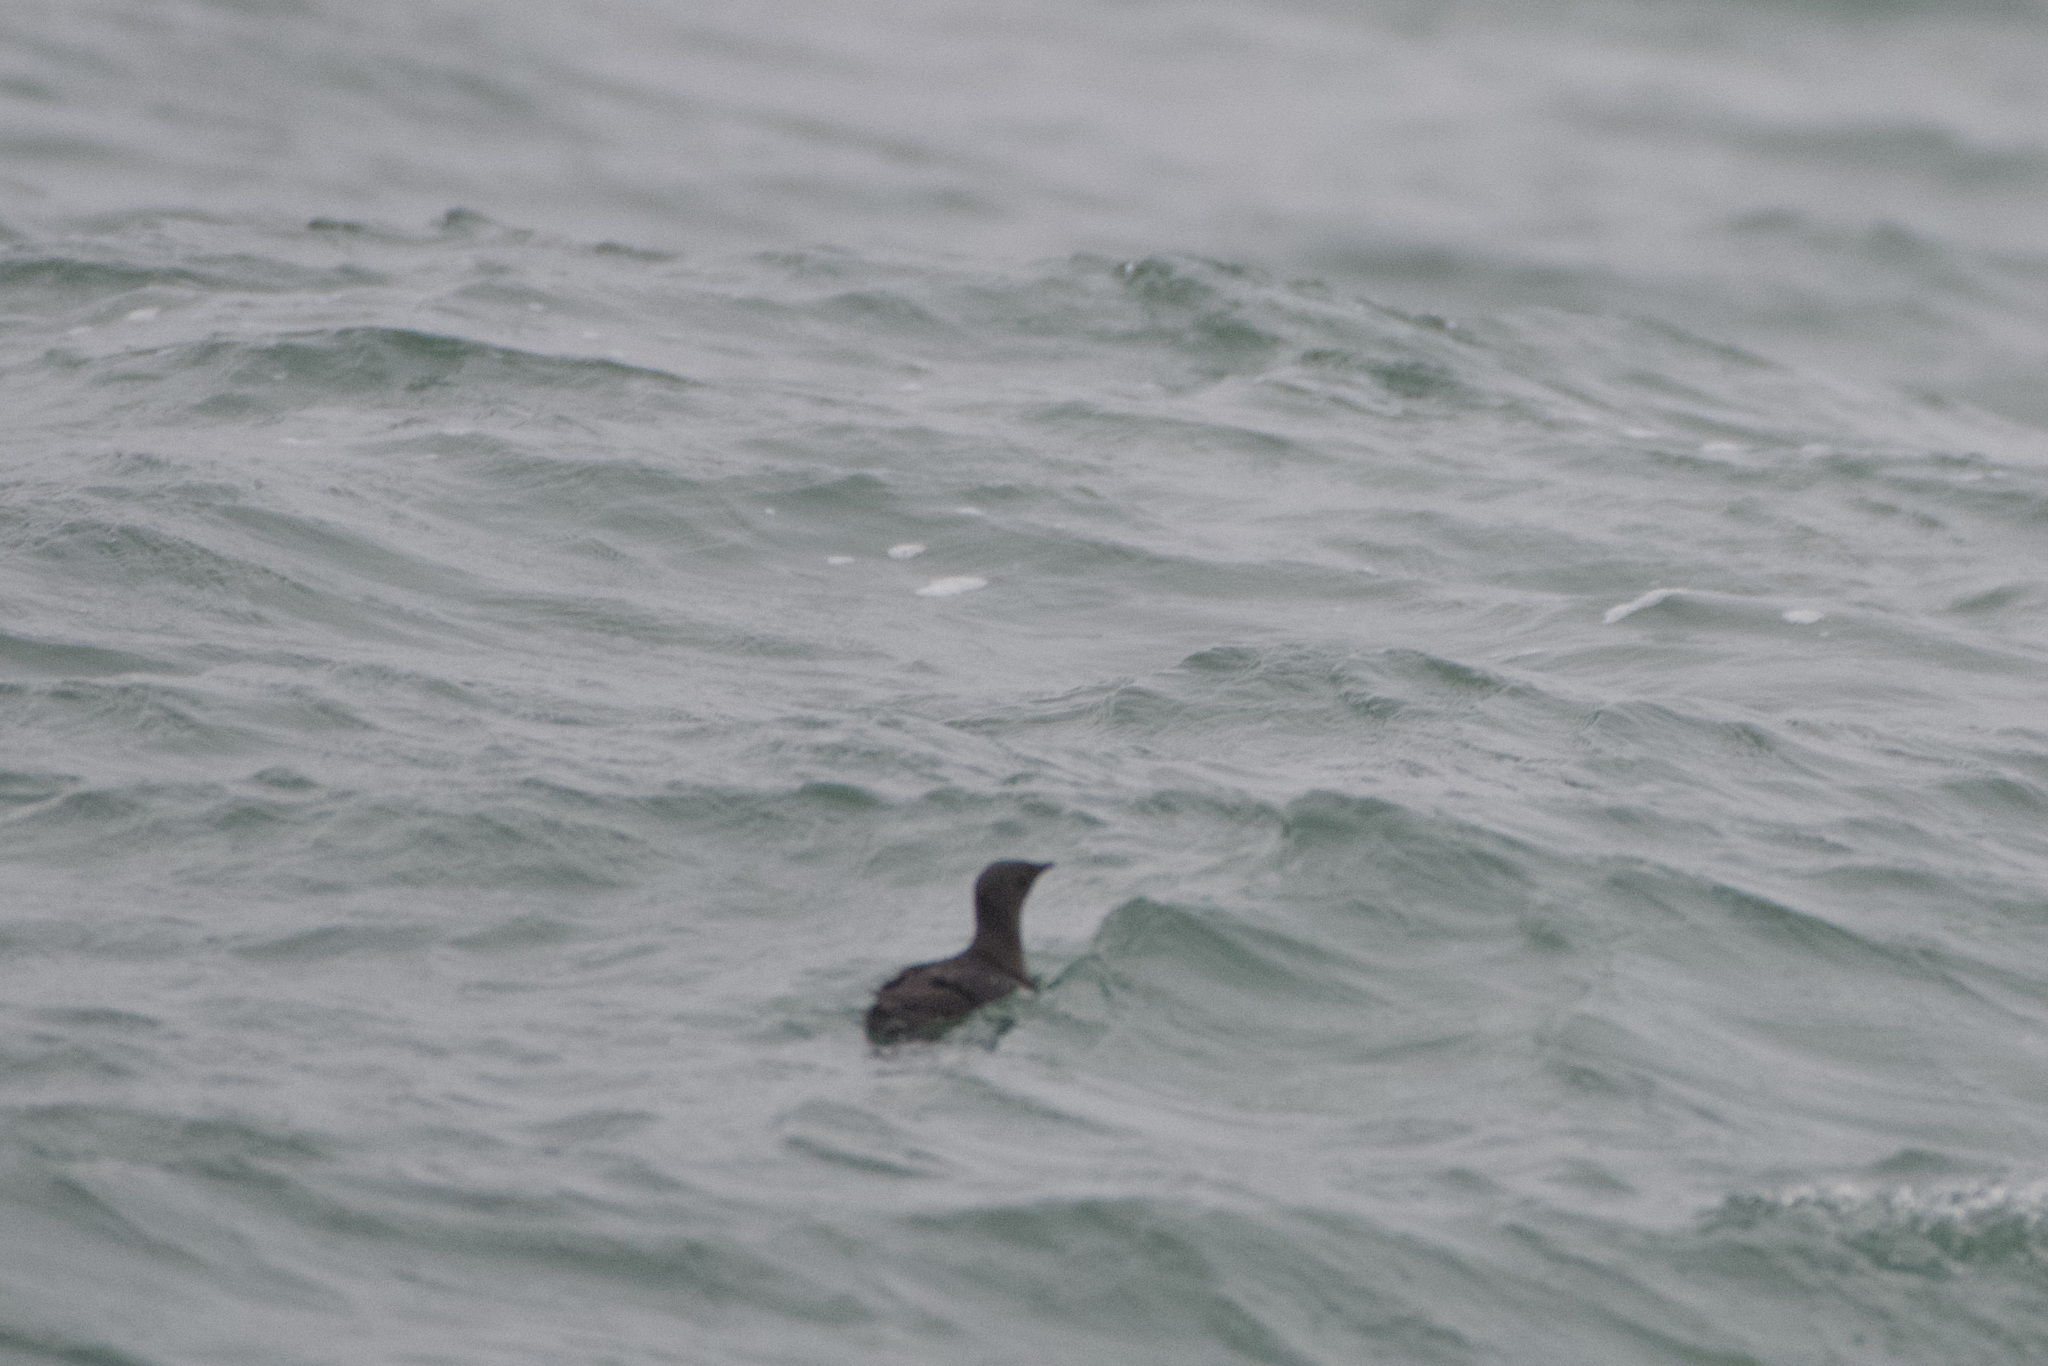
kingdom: Animalia
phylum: Chordata
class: Aves
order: Charadriiformes
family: Alcidae
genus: Brachyramphus
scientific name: Brachyramphus marmoratus
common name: Marbled murrelet
